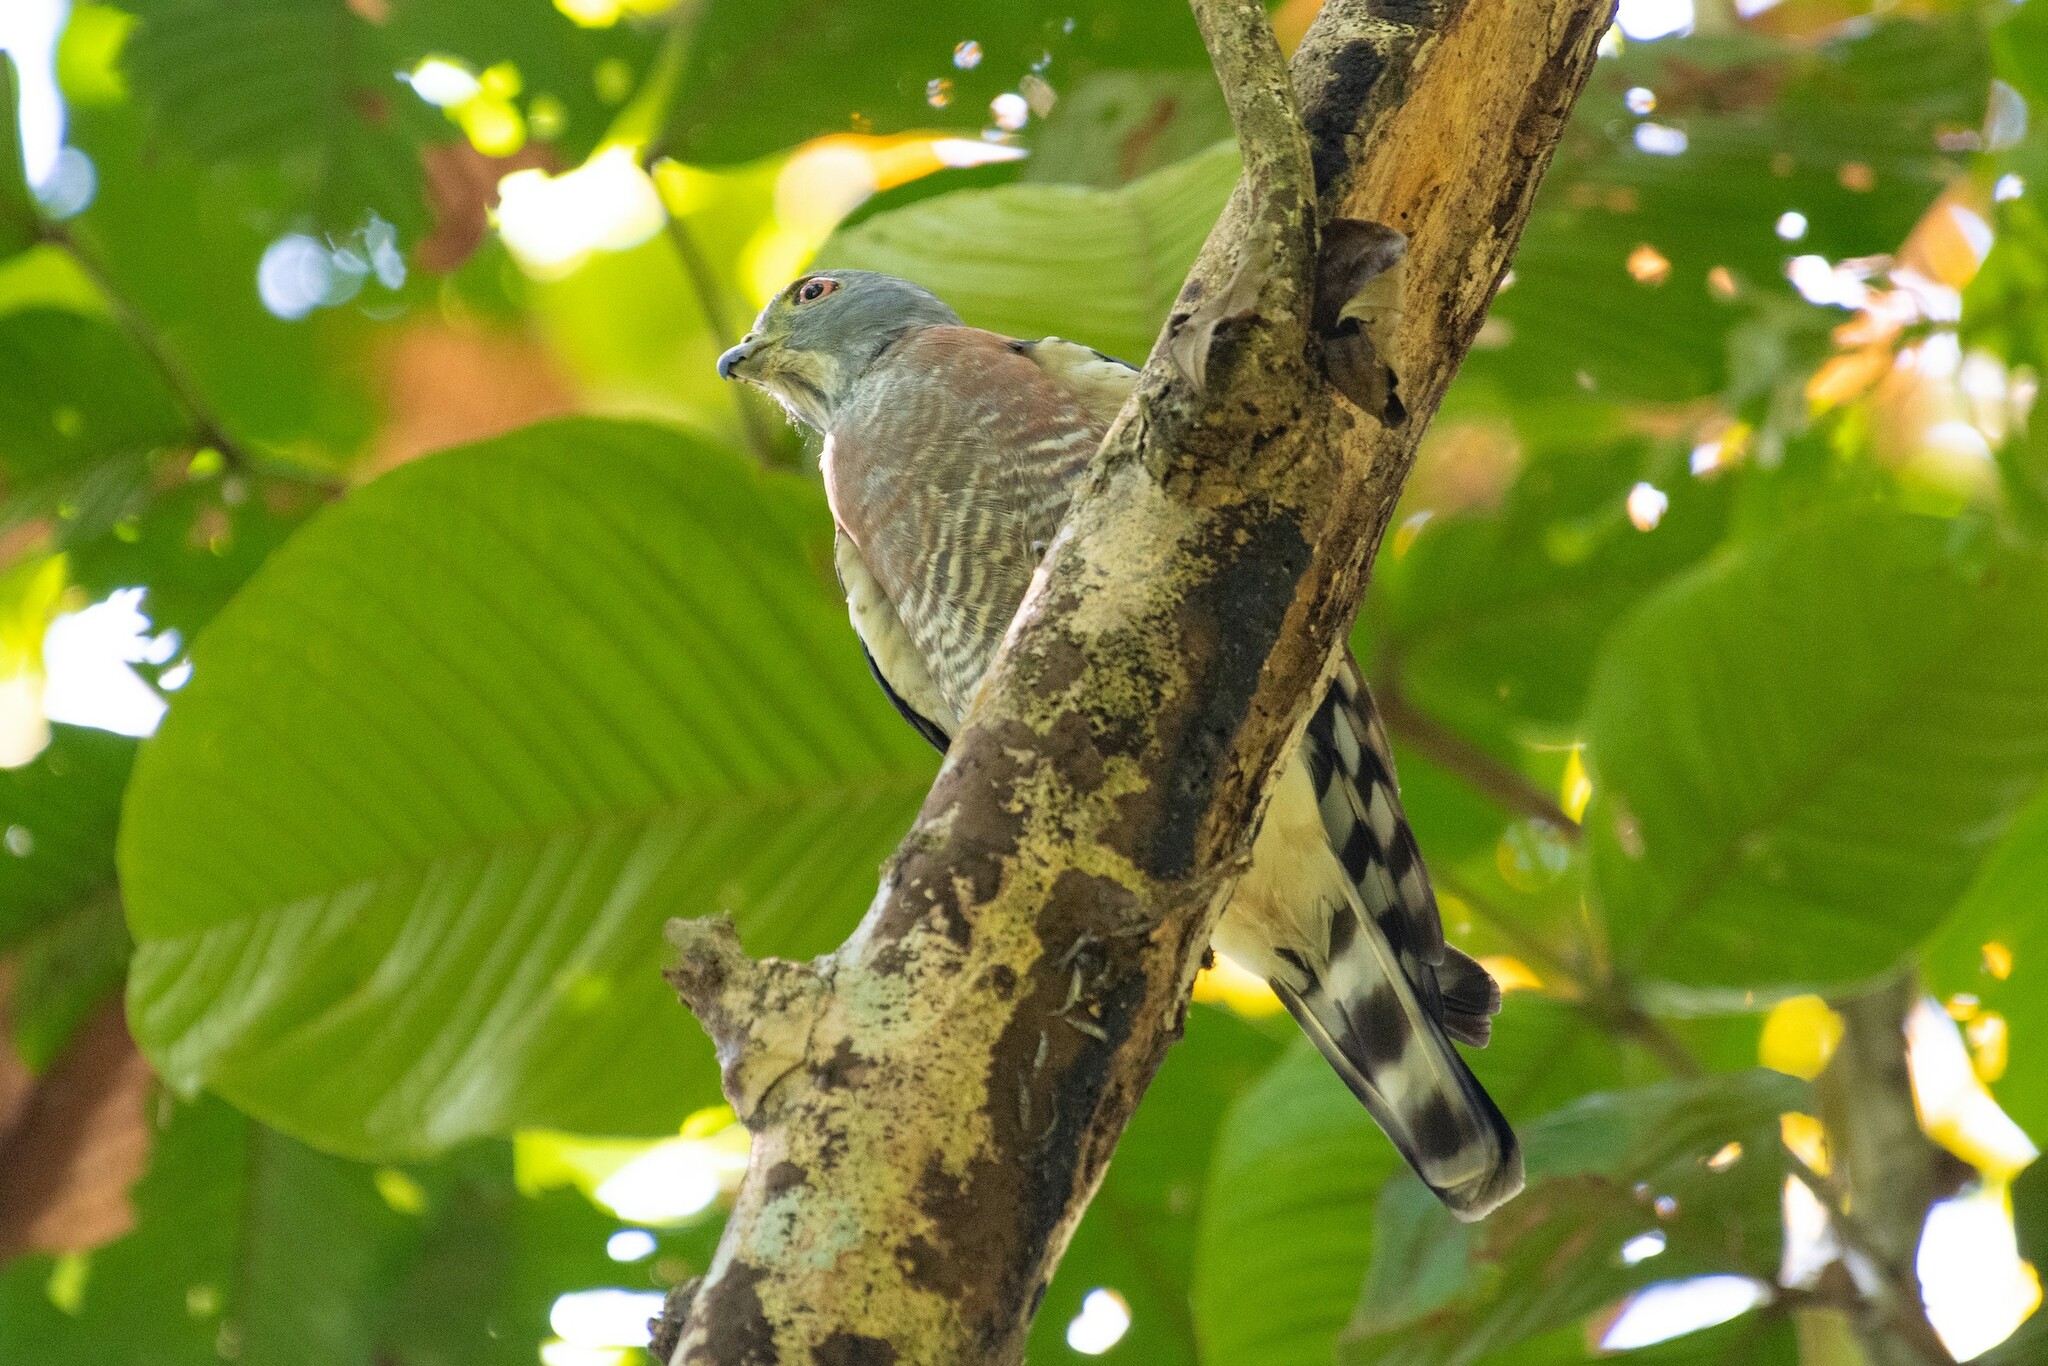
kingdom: Animalia
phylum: Chordata
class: Aves
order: Accipitriformes
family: Accipitridae
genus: Harpagus
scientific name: Harpagus bidentatus
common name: Double-toothed kite
